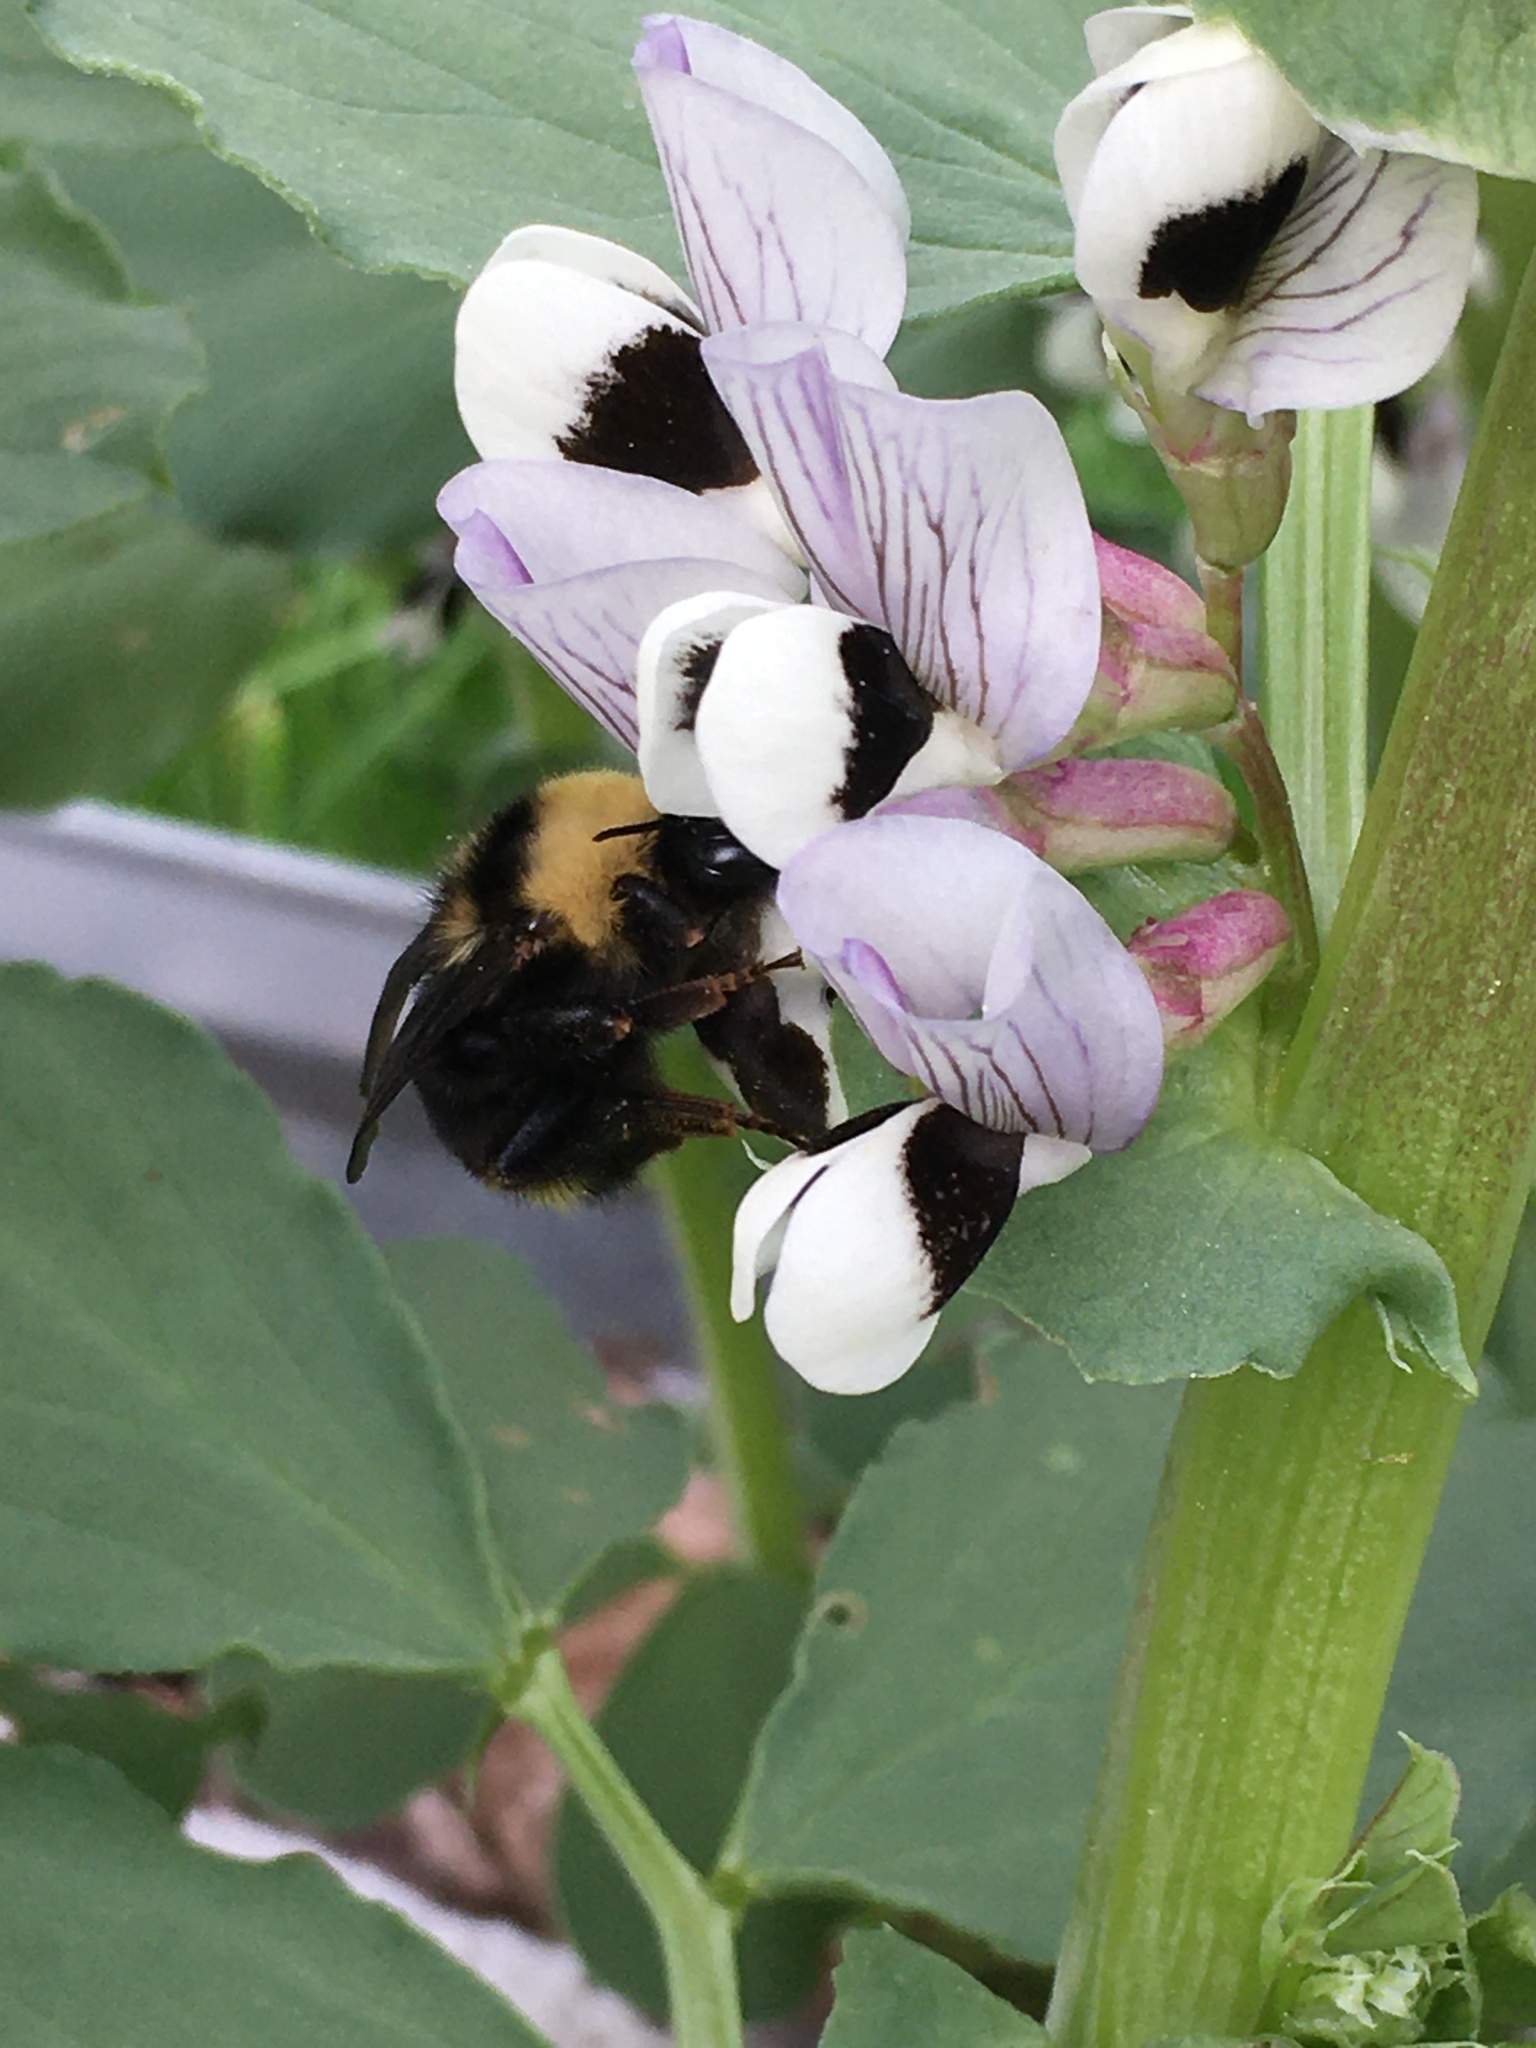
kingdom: Animalia
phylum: Arthropoda
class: Insecta
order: Hymenoptera
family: Apidae
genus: Bombus
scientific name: Bombus californicus
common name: California bumble bee
